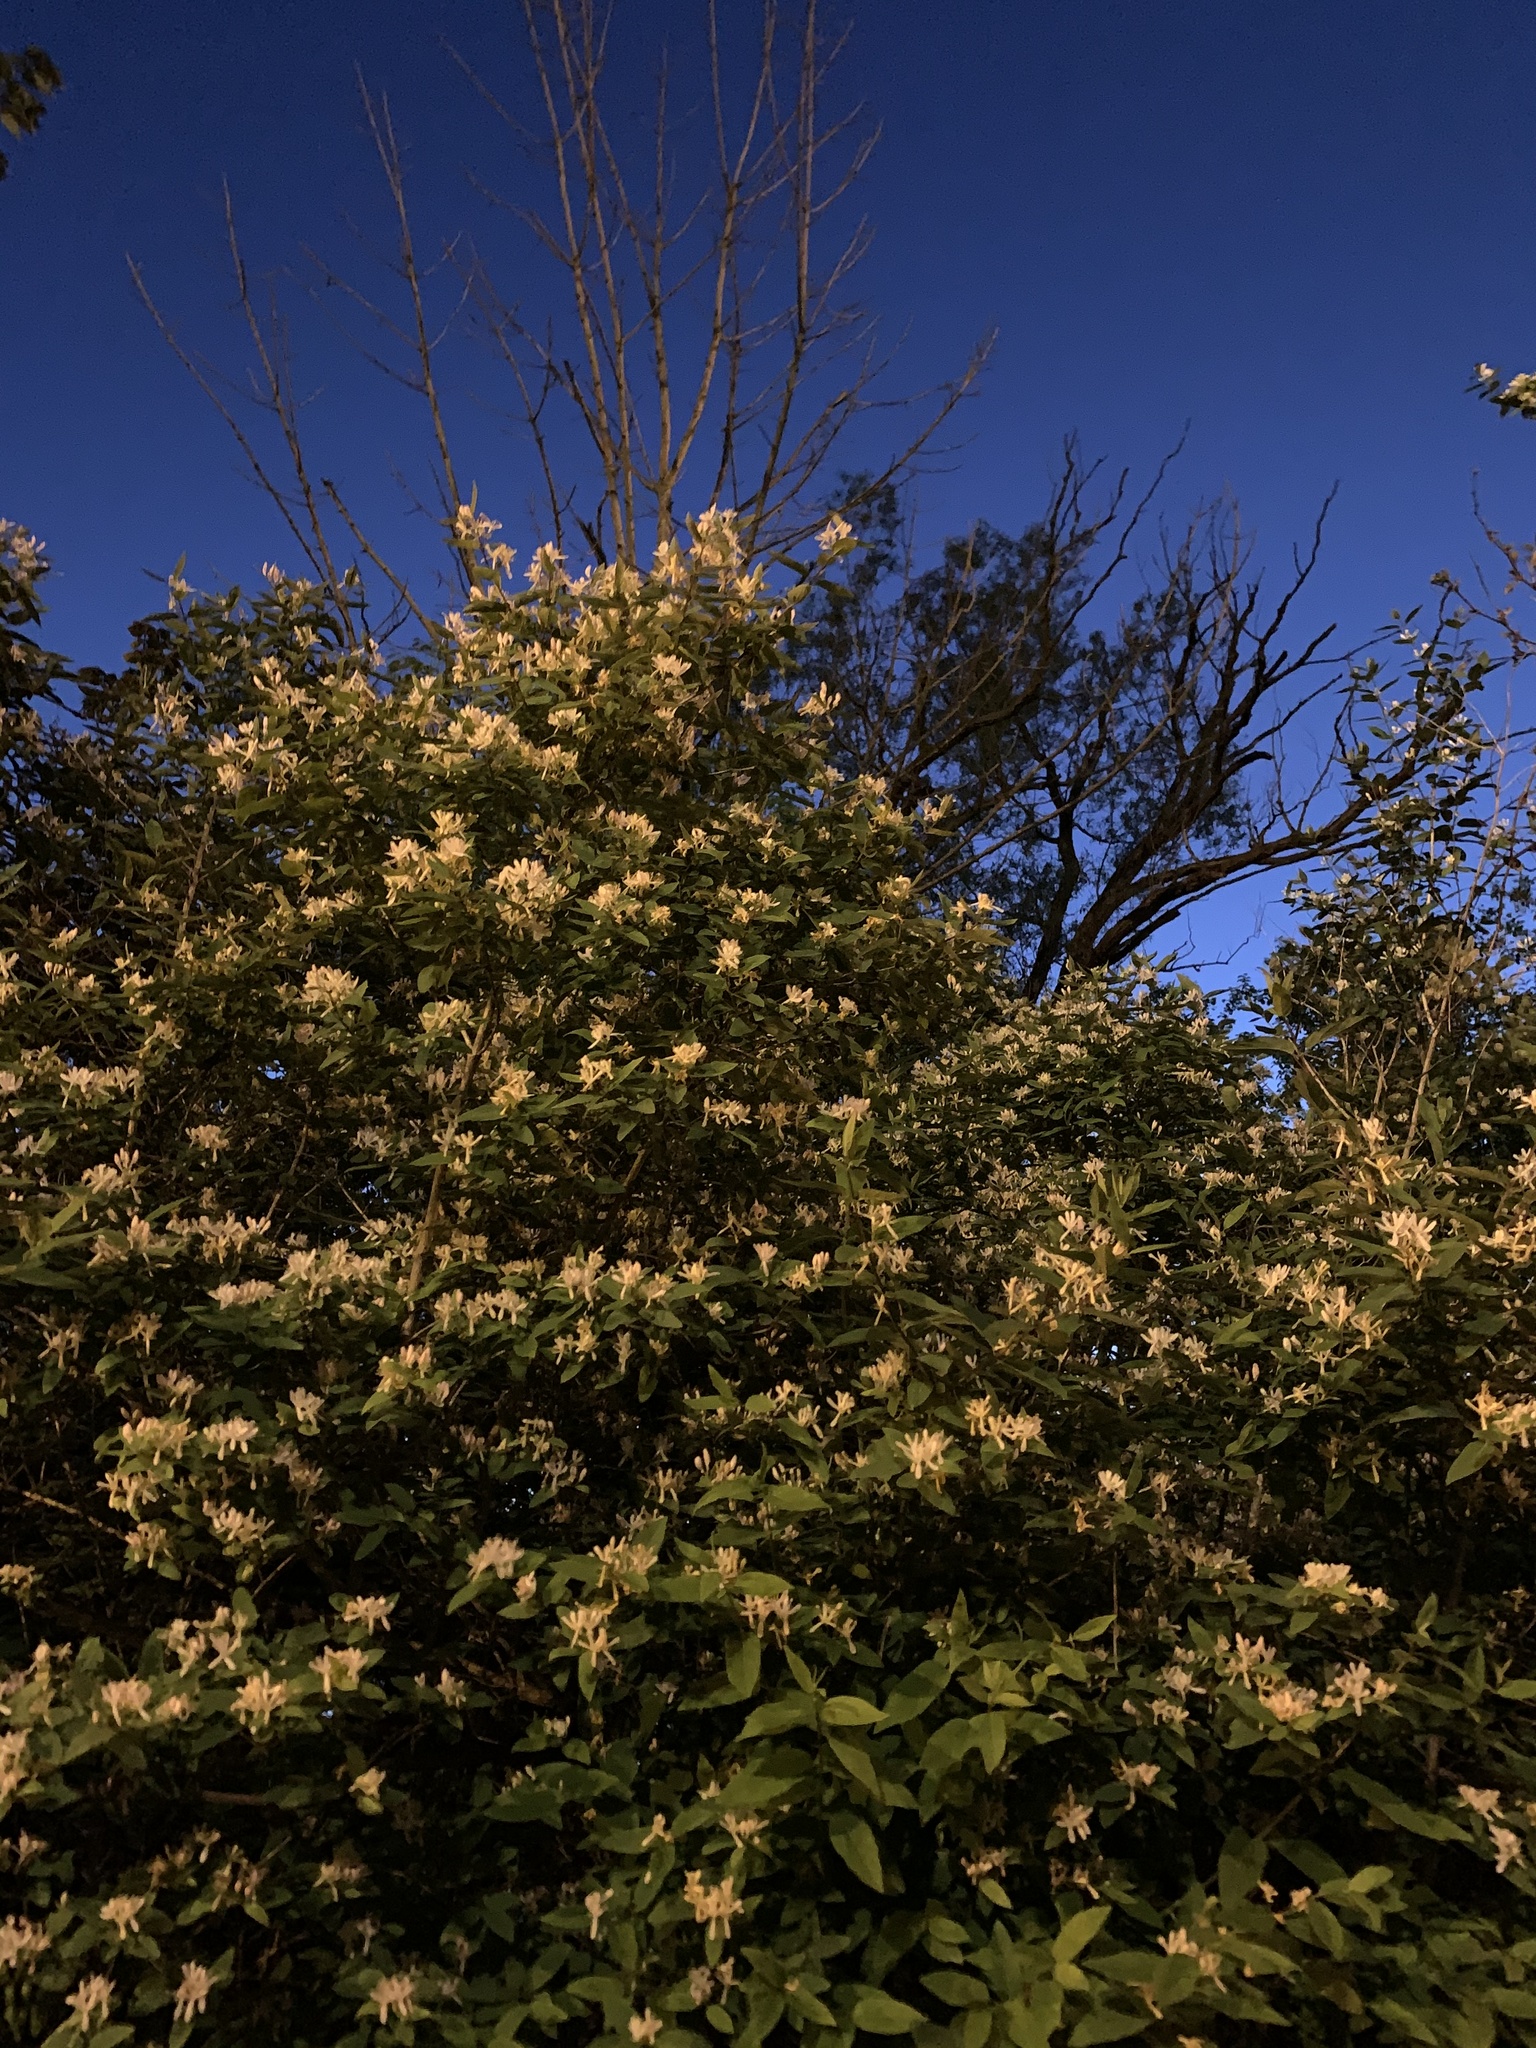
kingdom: Plantae
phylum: Tracheophyta
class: Magnoliopsida
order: Dipsacales
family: Caprifoliaceae
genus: Lonicera
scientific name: Lonicera japonica
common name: Japanese honeysuckle
